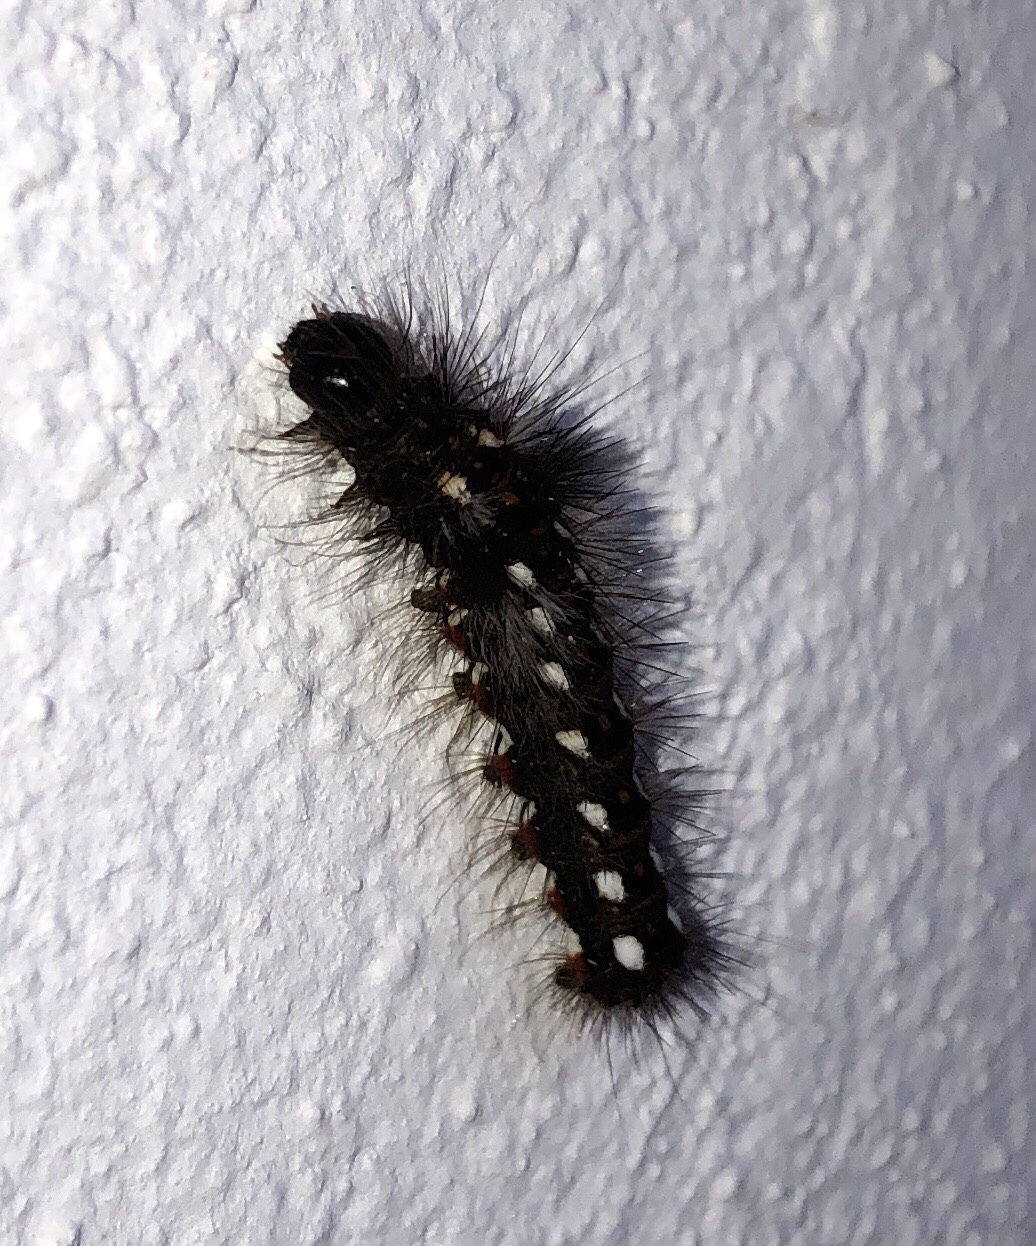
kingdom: Animalia
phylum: Arthropoda
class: Insecta
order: Lepidoptera
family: Noctuidae
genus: Acronicta
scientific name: Acronicta rumicis
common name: Knot grass
